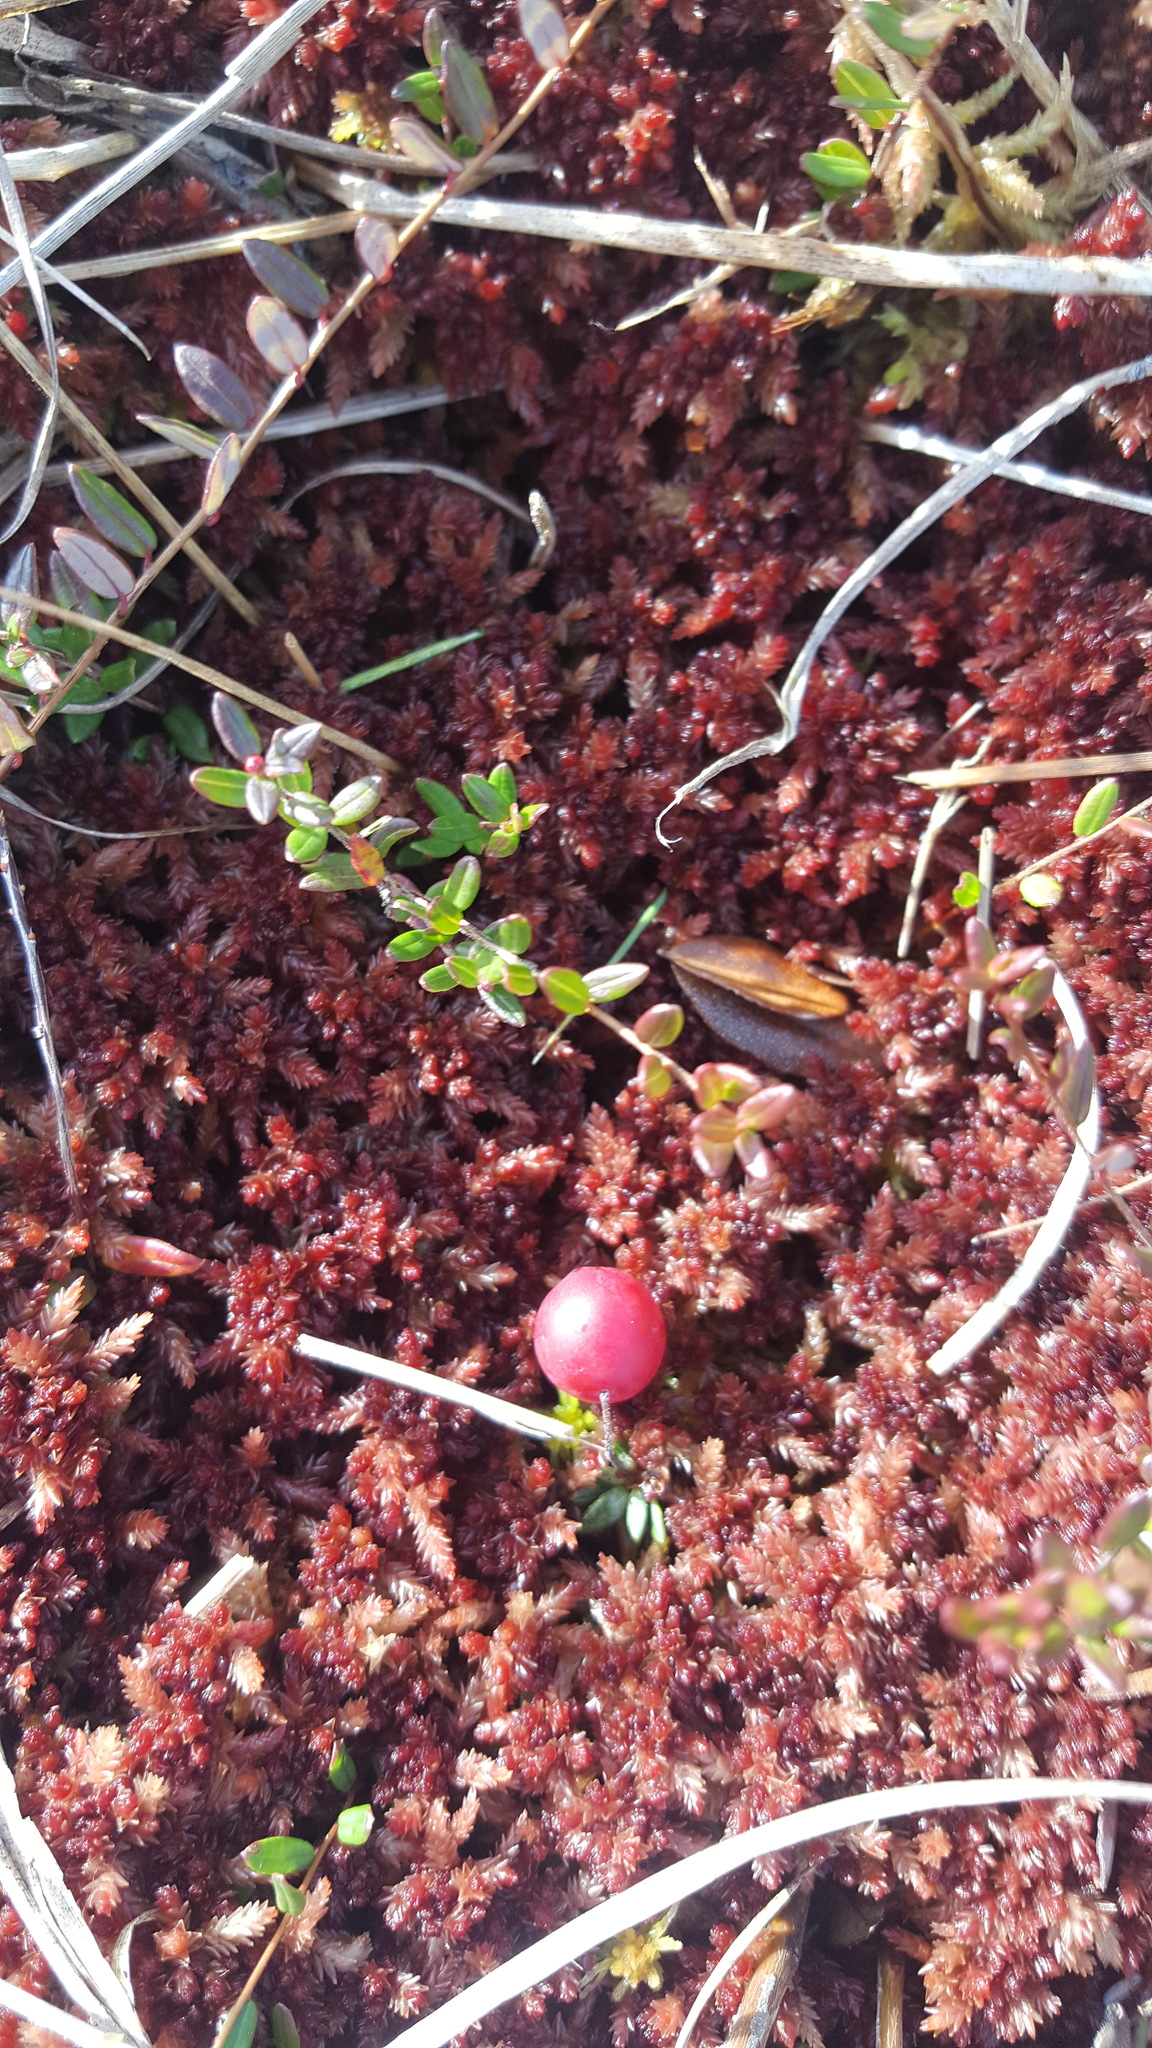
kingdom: Plantae
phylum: Tracheophyta
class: Magnoliopsida
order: Ericales
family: Ericaceae
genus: Vaccinium
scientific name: Vaccinium oxycoccos
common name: Cranberry
